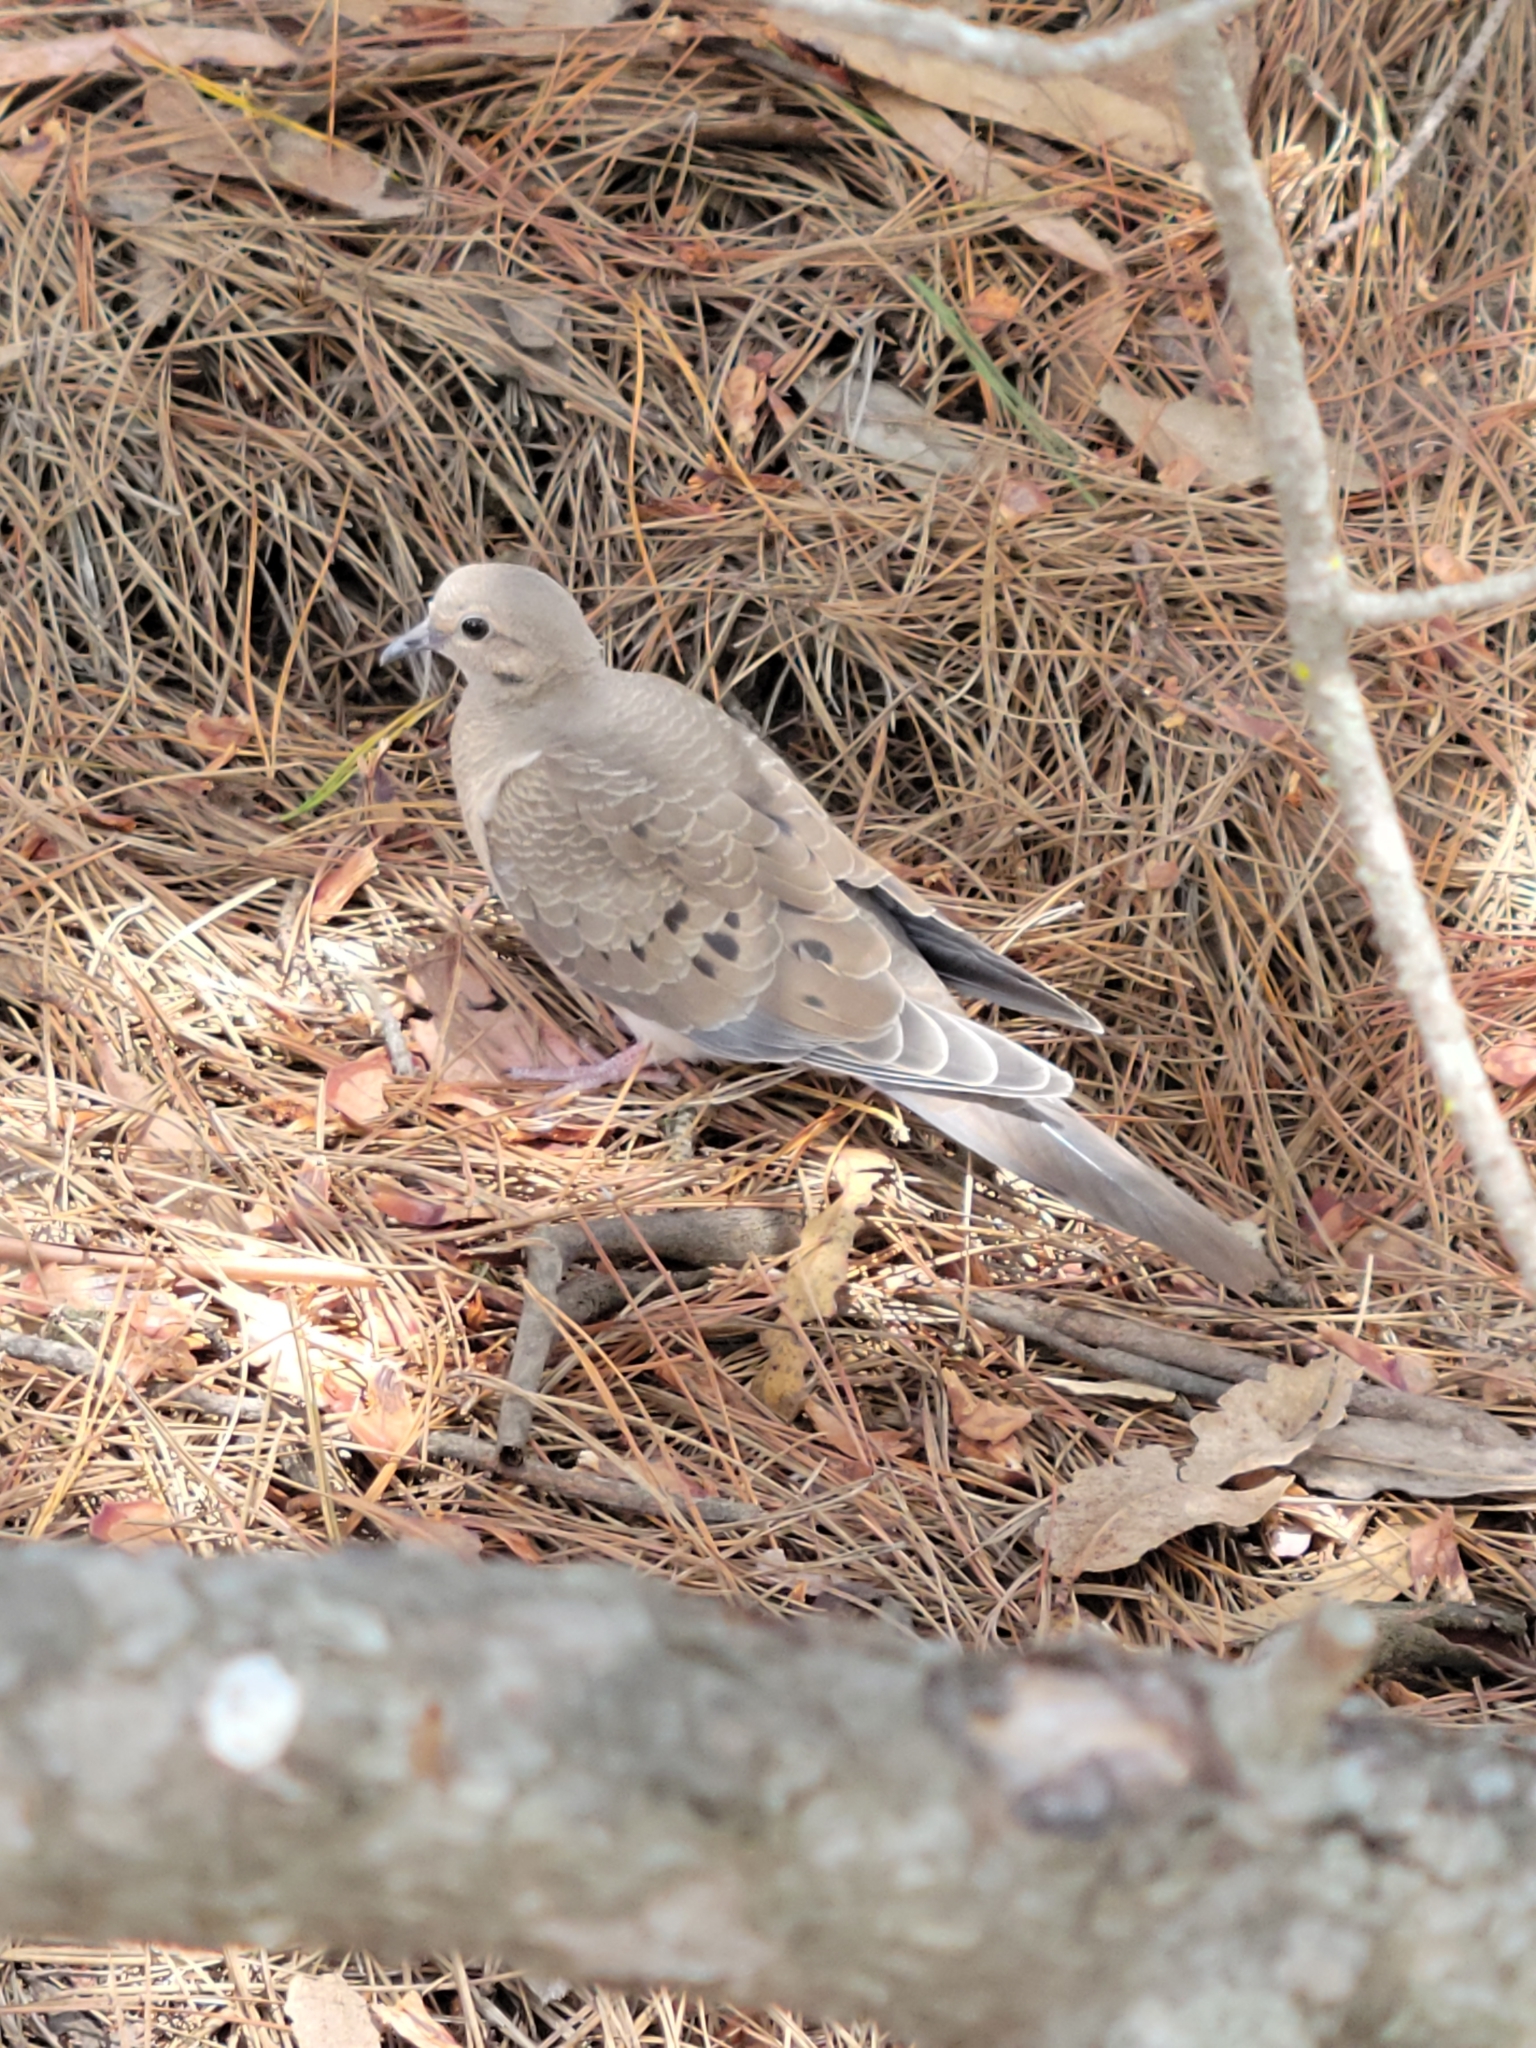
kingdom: Animalia
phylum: Chordata
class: Aves
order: Columbiformes
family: Columbidae
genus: Zenaida
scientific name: Zenaida macroura
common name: Mourning dove
